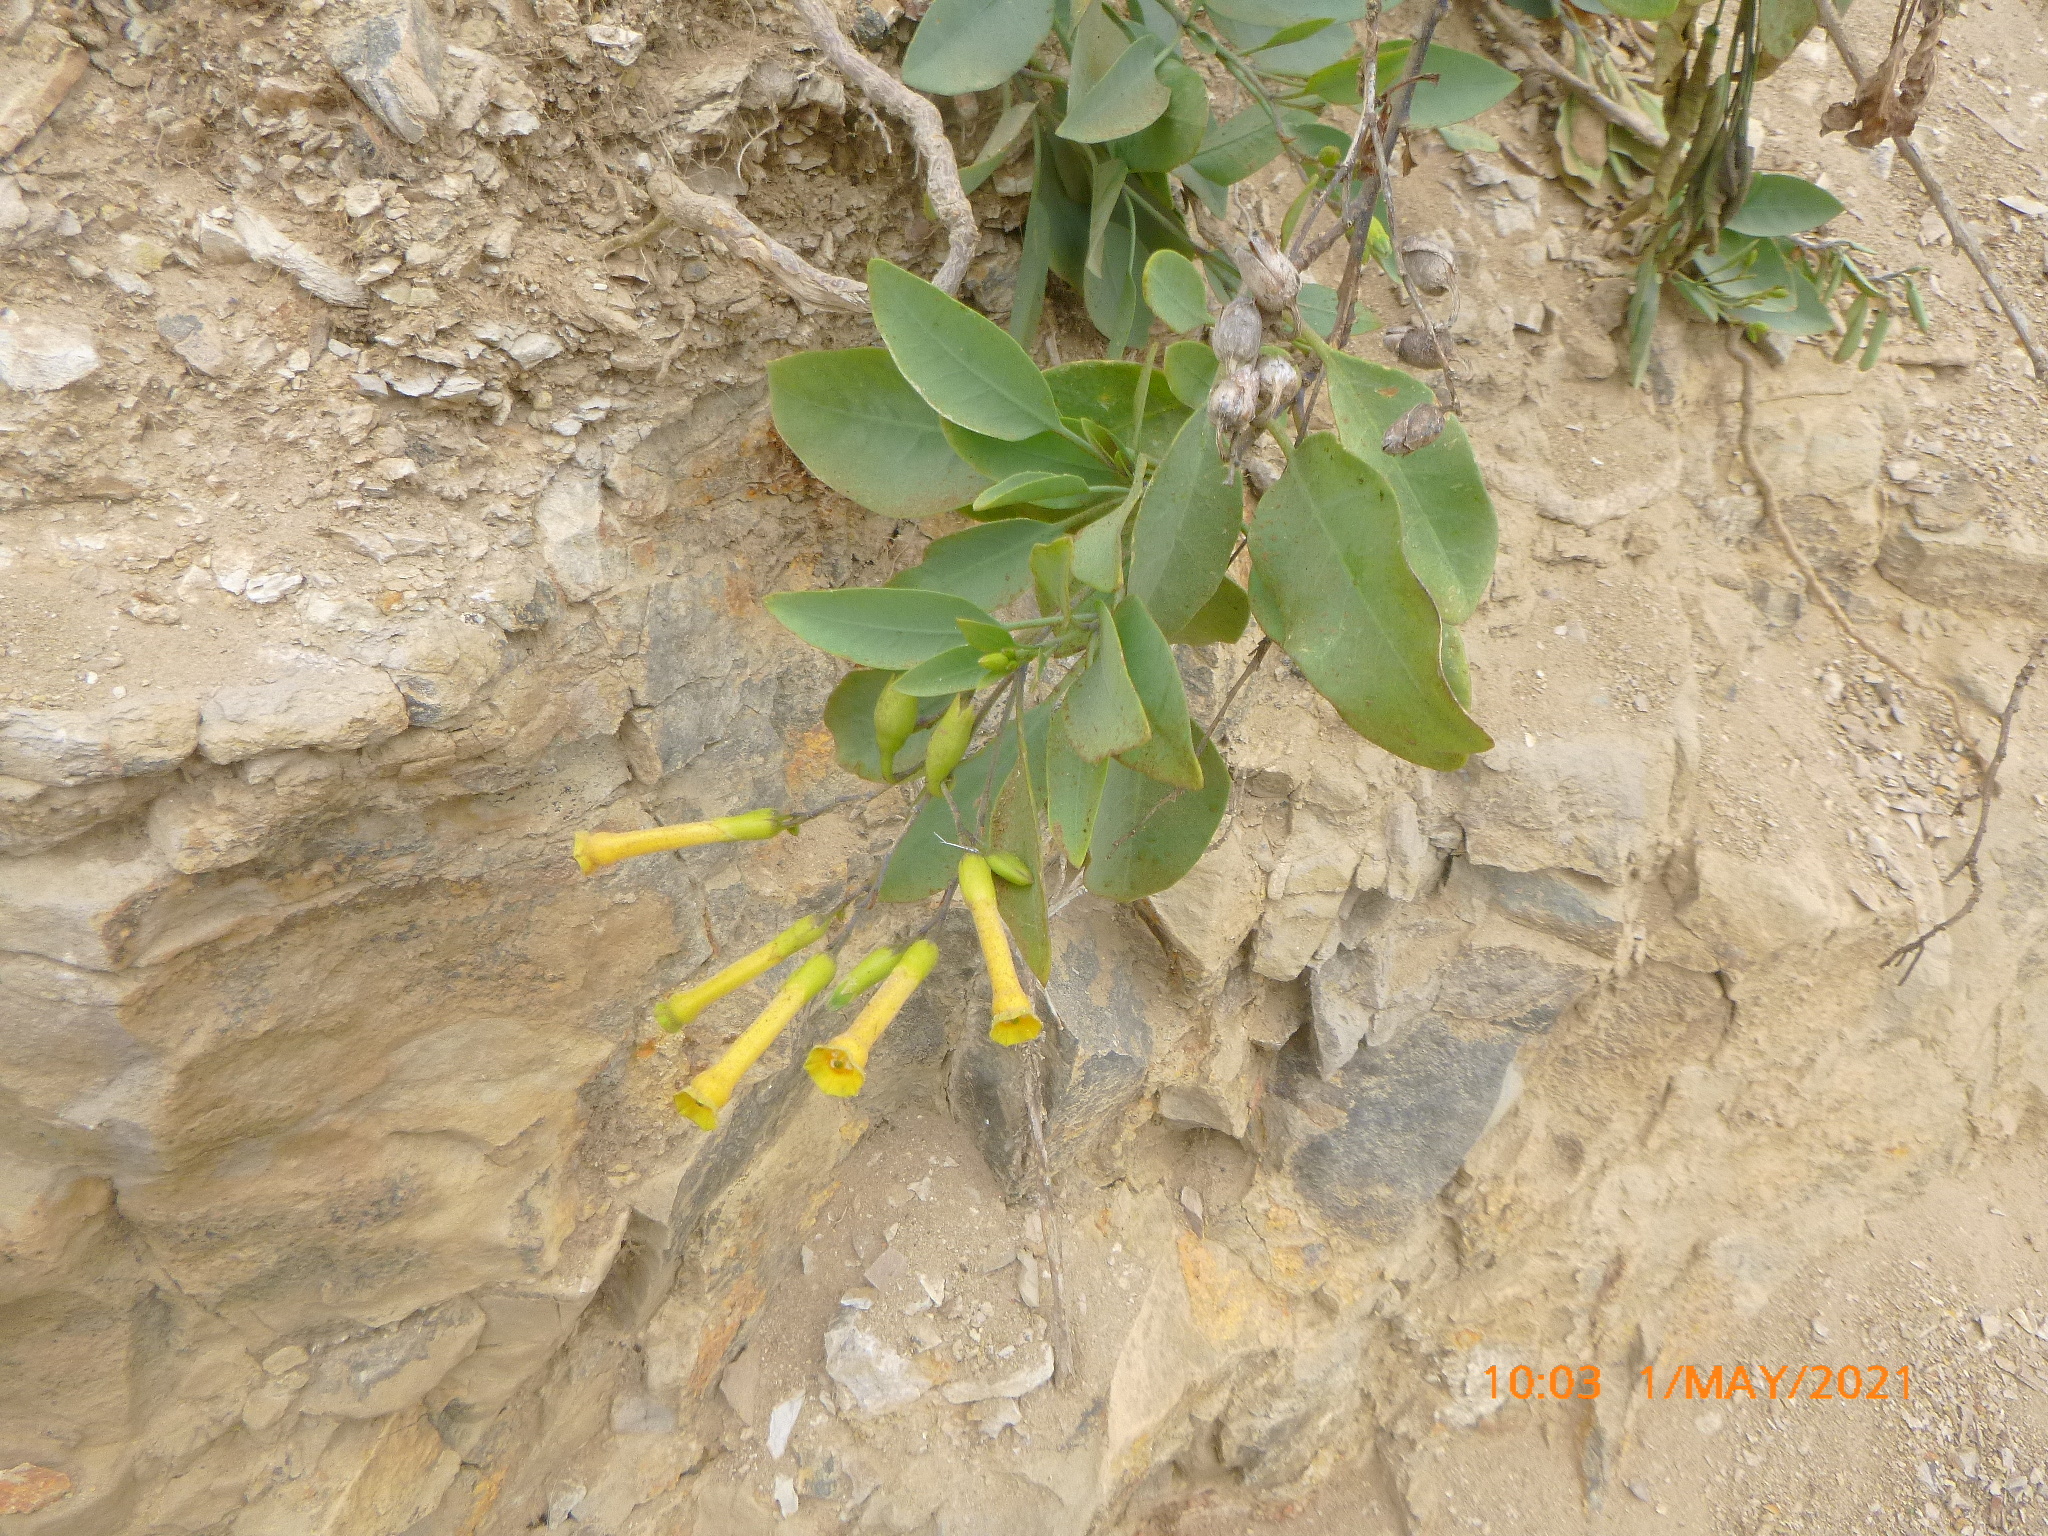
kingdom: Plantae
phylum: Tracheophyta
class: Magnoliopsida
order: Solanales
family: Solanaceae
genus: Nicotiana
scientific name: Nicotiana glauca
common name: Tree tobacco
